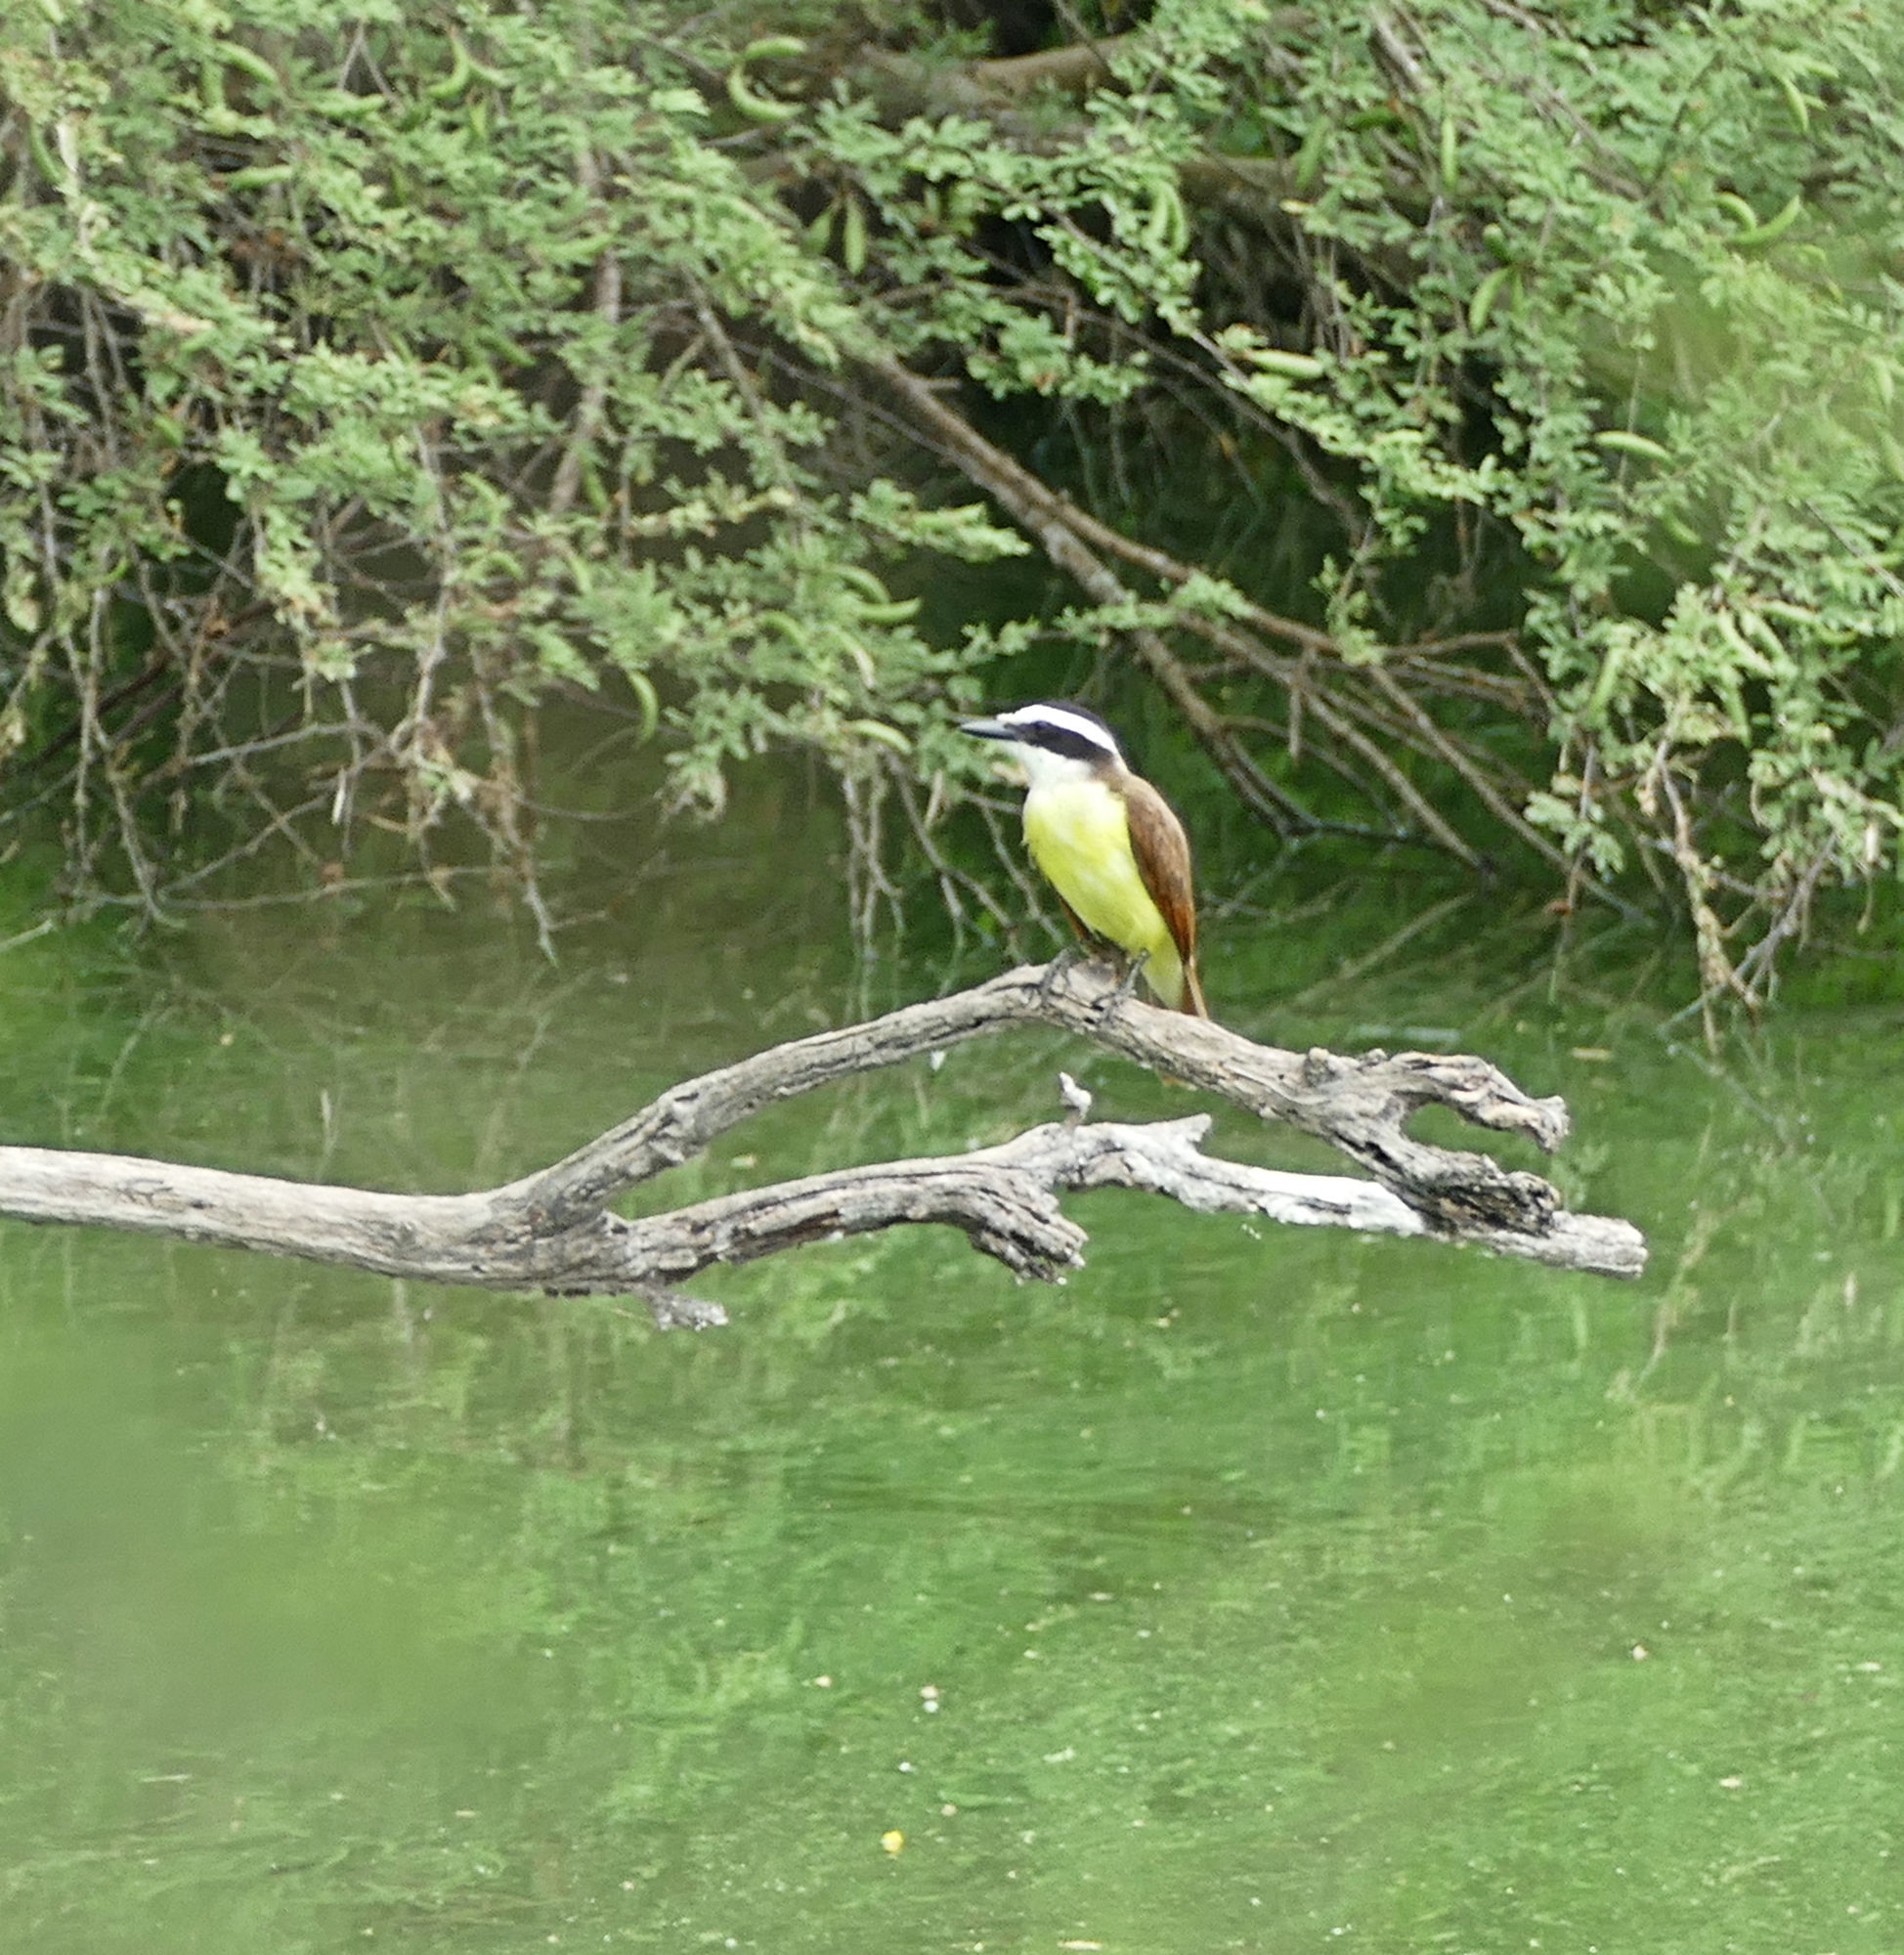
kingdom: Animalia
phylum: Chordata
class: Aves
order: Passeriformes
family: Tyrannidae
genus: Pitangus
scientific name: Pitangus sulphuratus
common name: Great kiskadee
